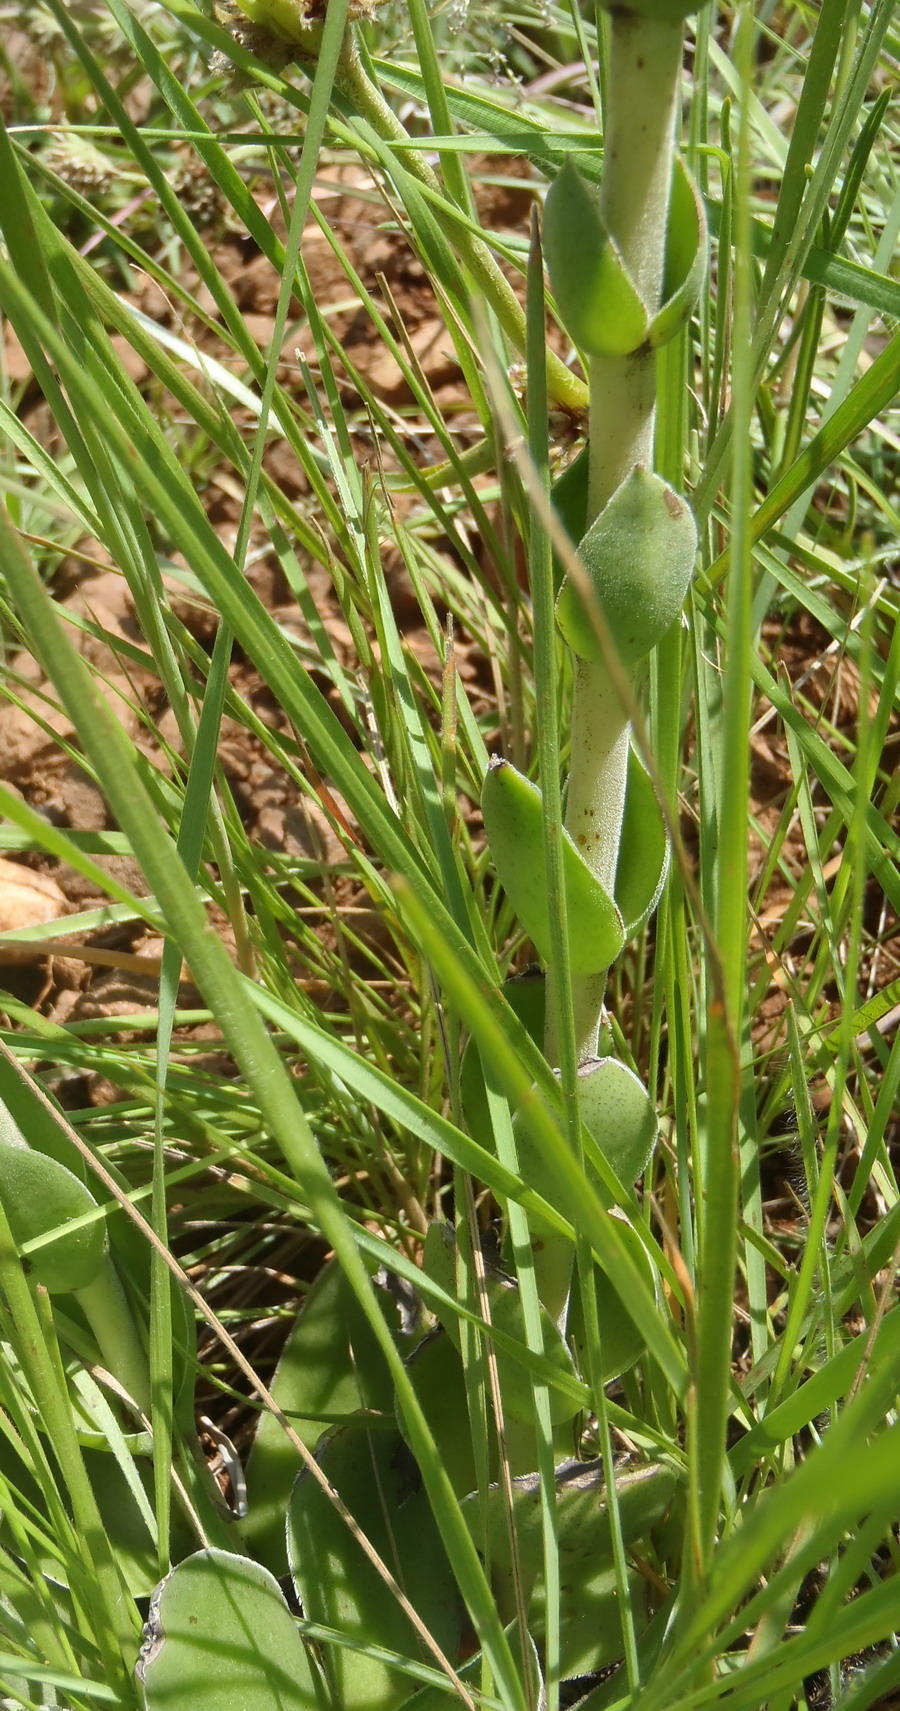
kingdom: Plantae
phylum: Tracheophyta
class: Magnoliopsida
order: Saxifragales
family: Crassulaceae
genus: Crassula
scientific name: Crassula nodulosa
